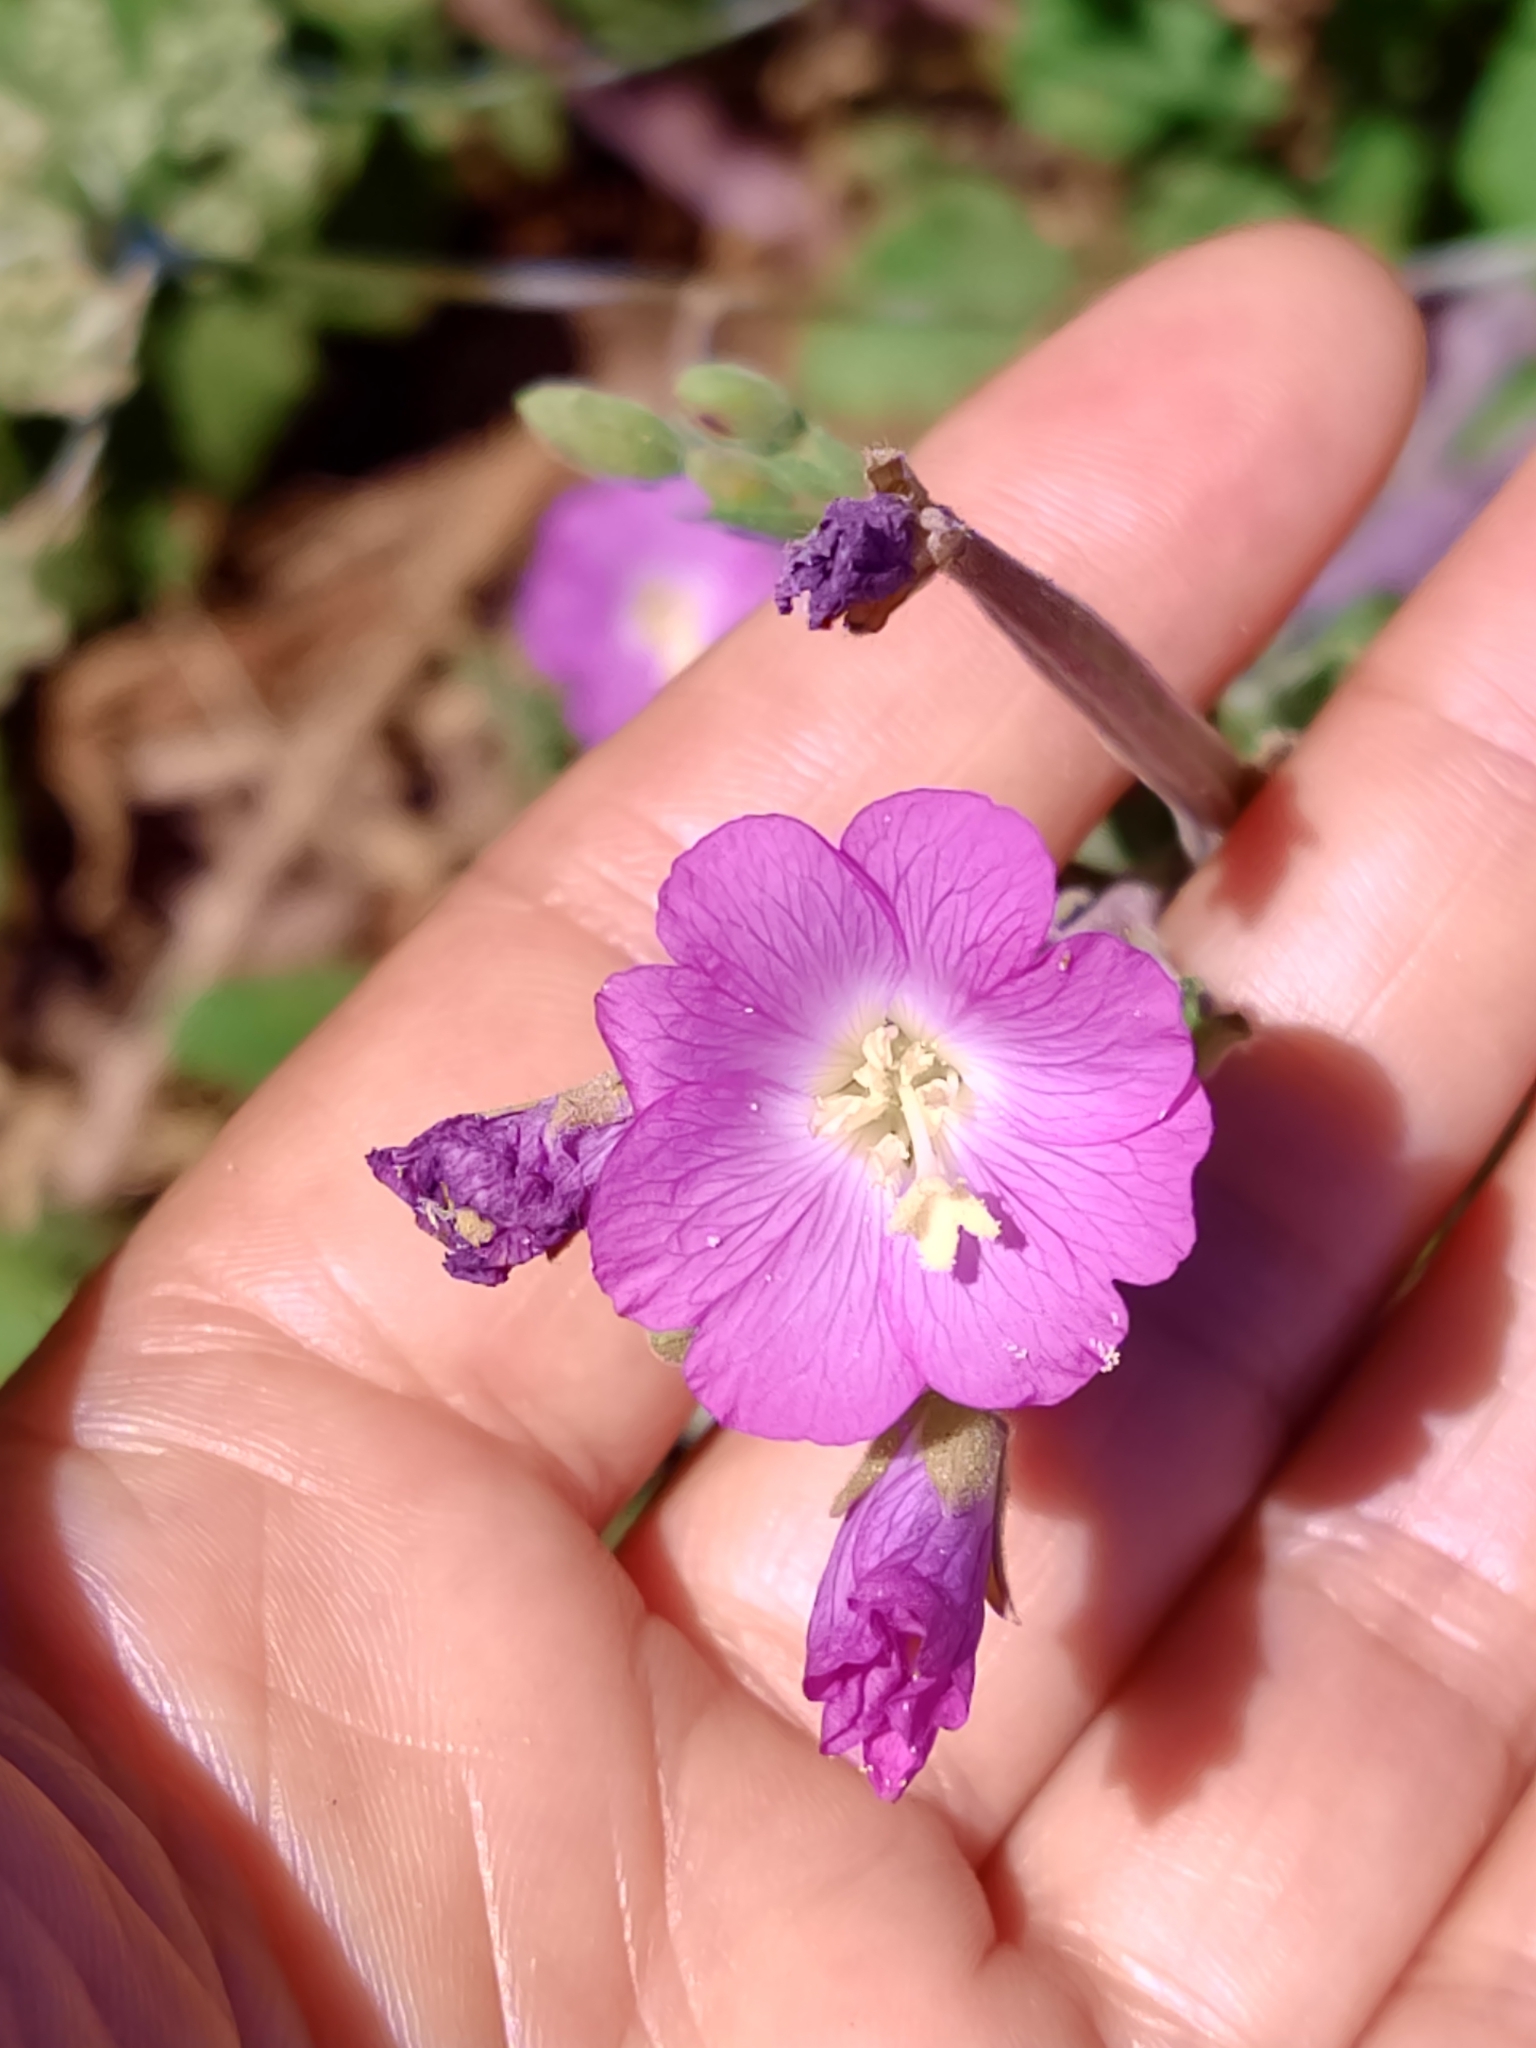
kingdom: Plantae
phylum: Tracheophyta
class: Magnoliopsida
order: Myrtales
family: Onagraceae
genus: Epilobium
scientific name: Epilobium hirsutum
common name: Great willowherb
